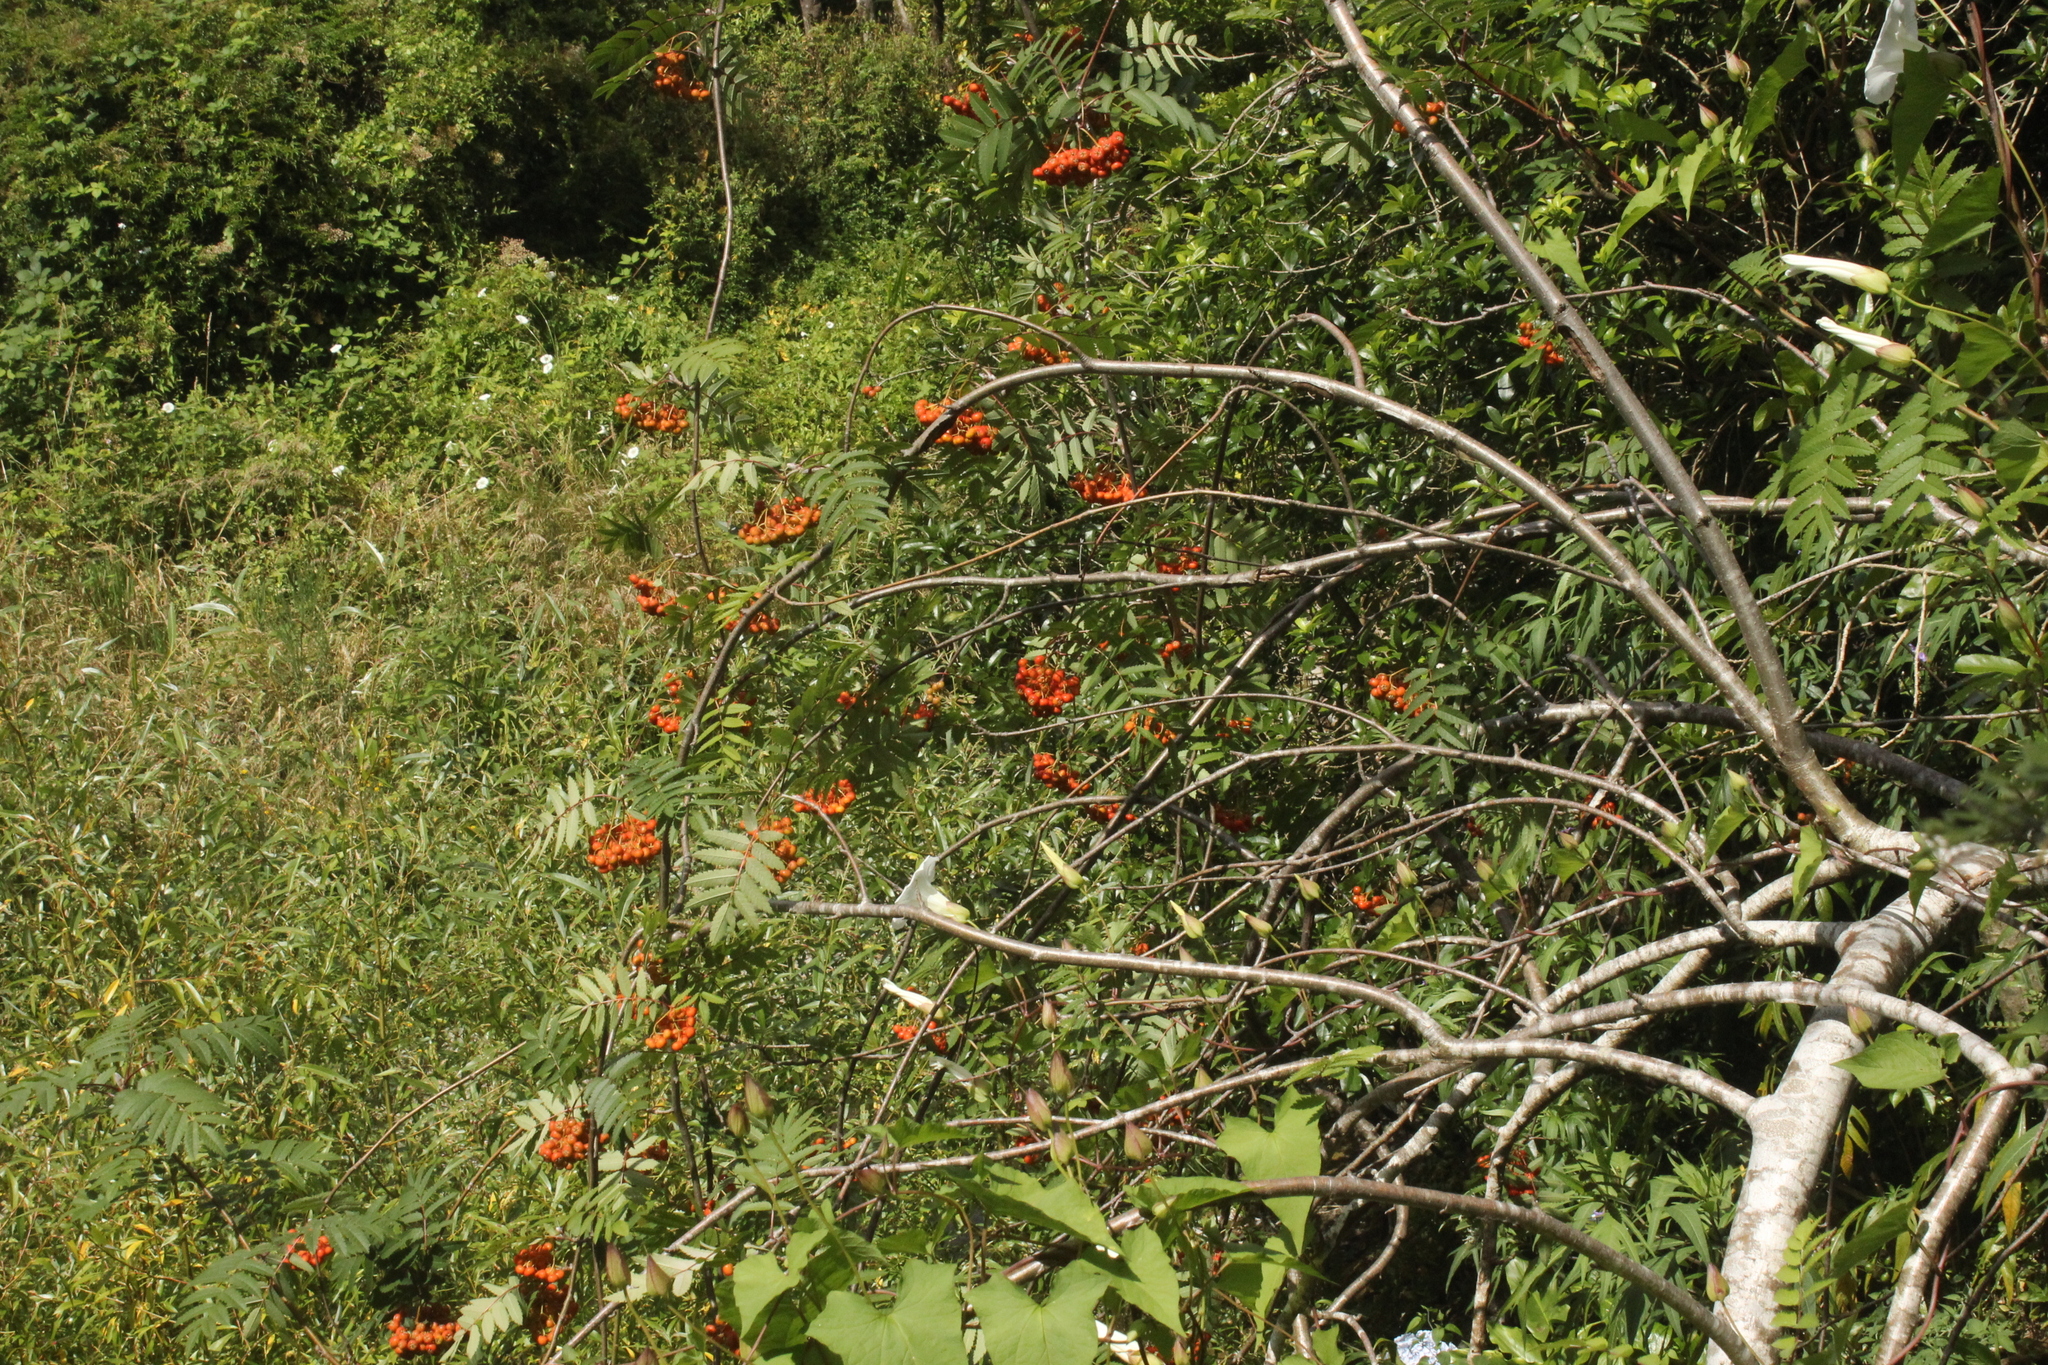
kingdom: Plantae
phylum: Tracheophyta
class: Magnoliopsida
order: Rosales
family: Rosaceae
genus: Sorbus
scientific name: Sorbus aucuparia
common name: Rowan
